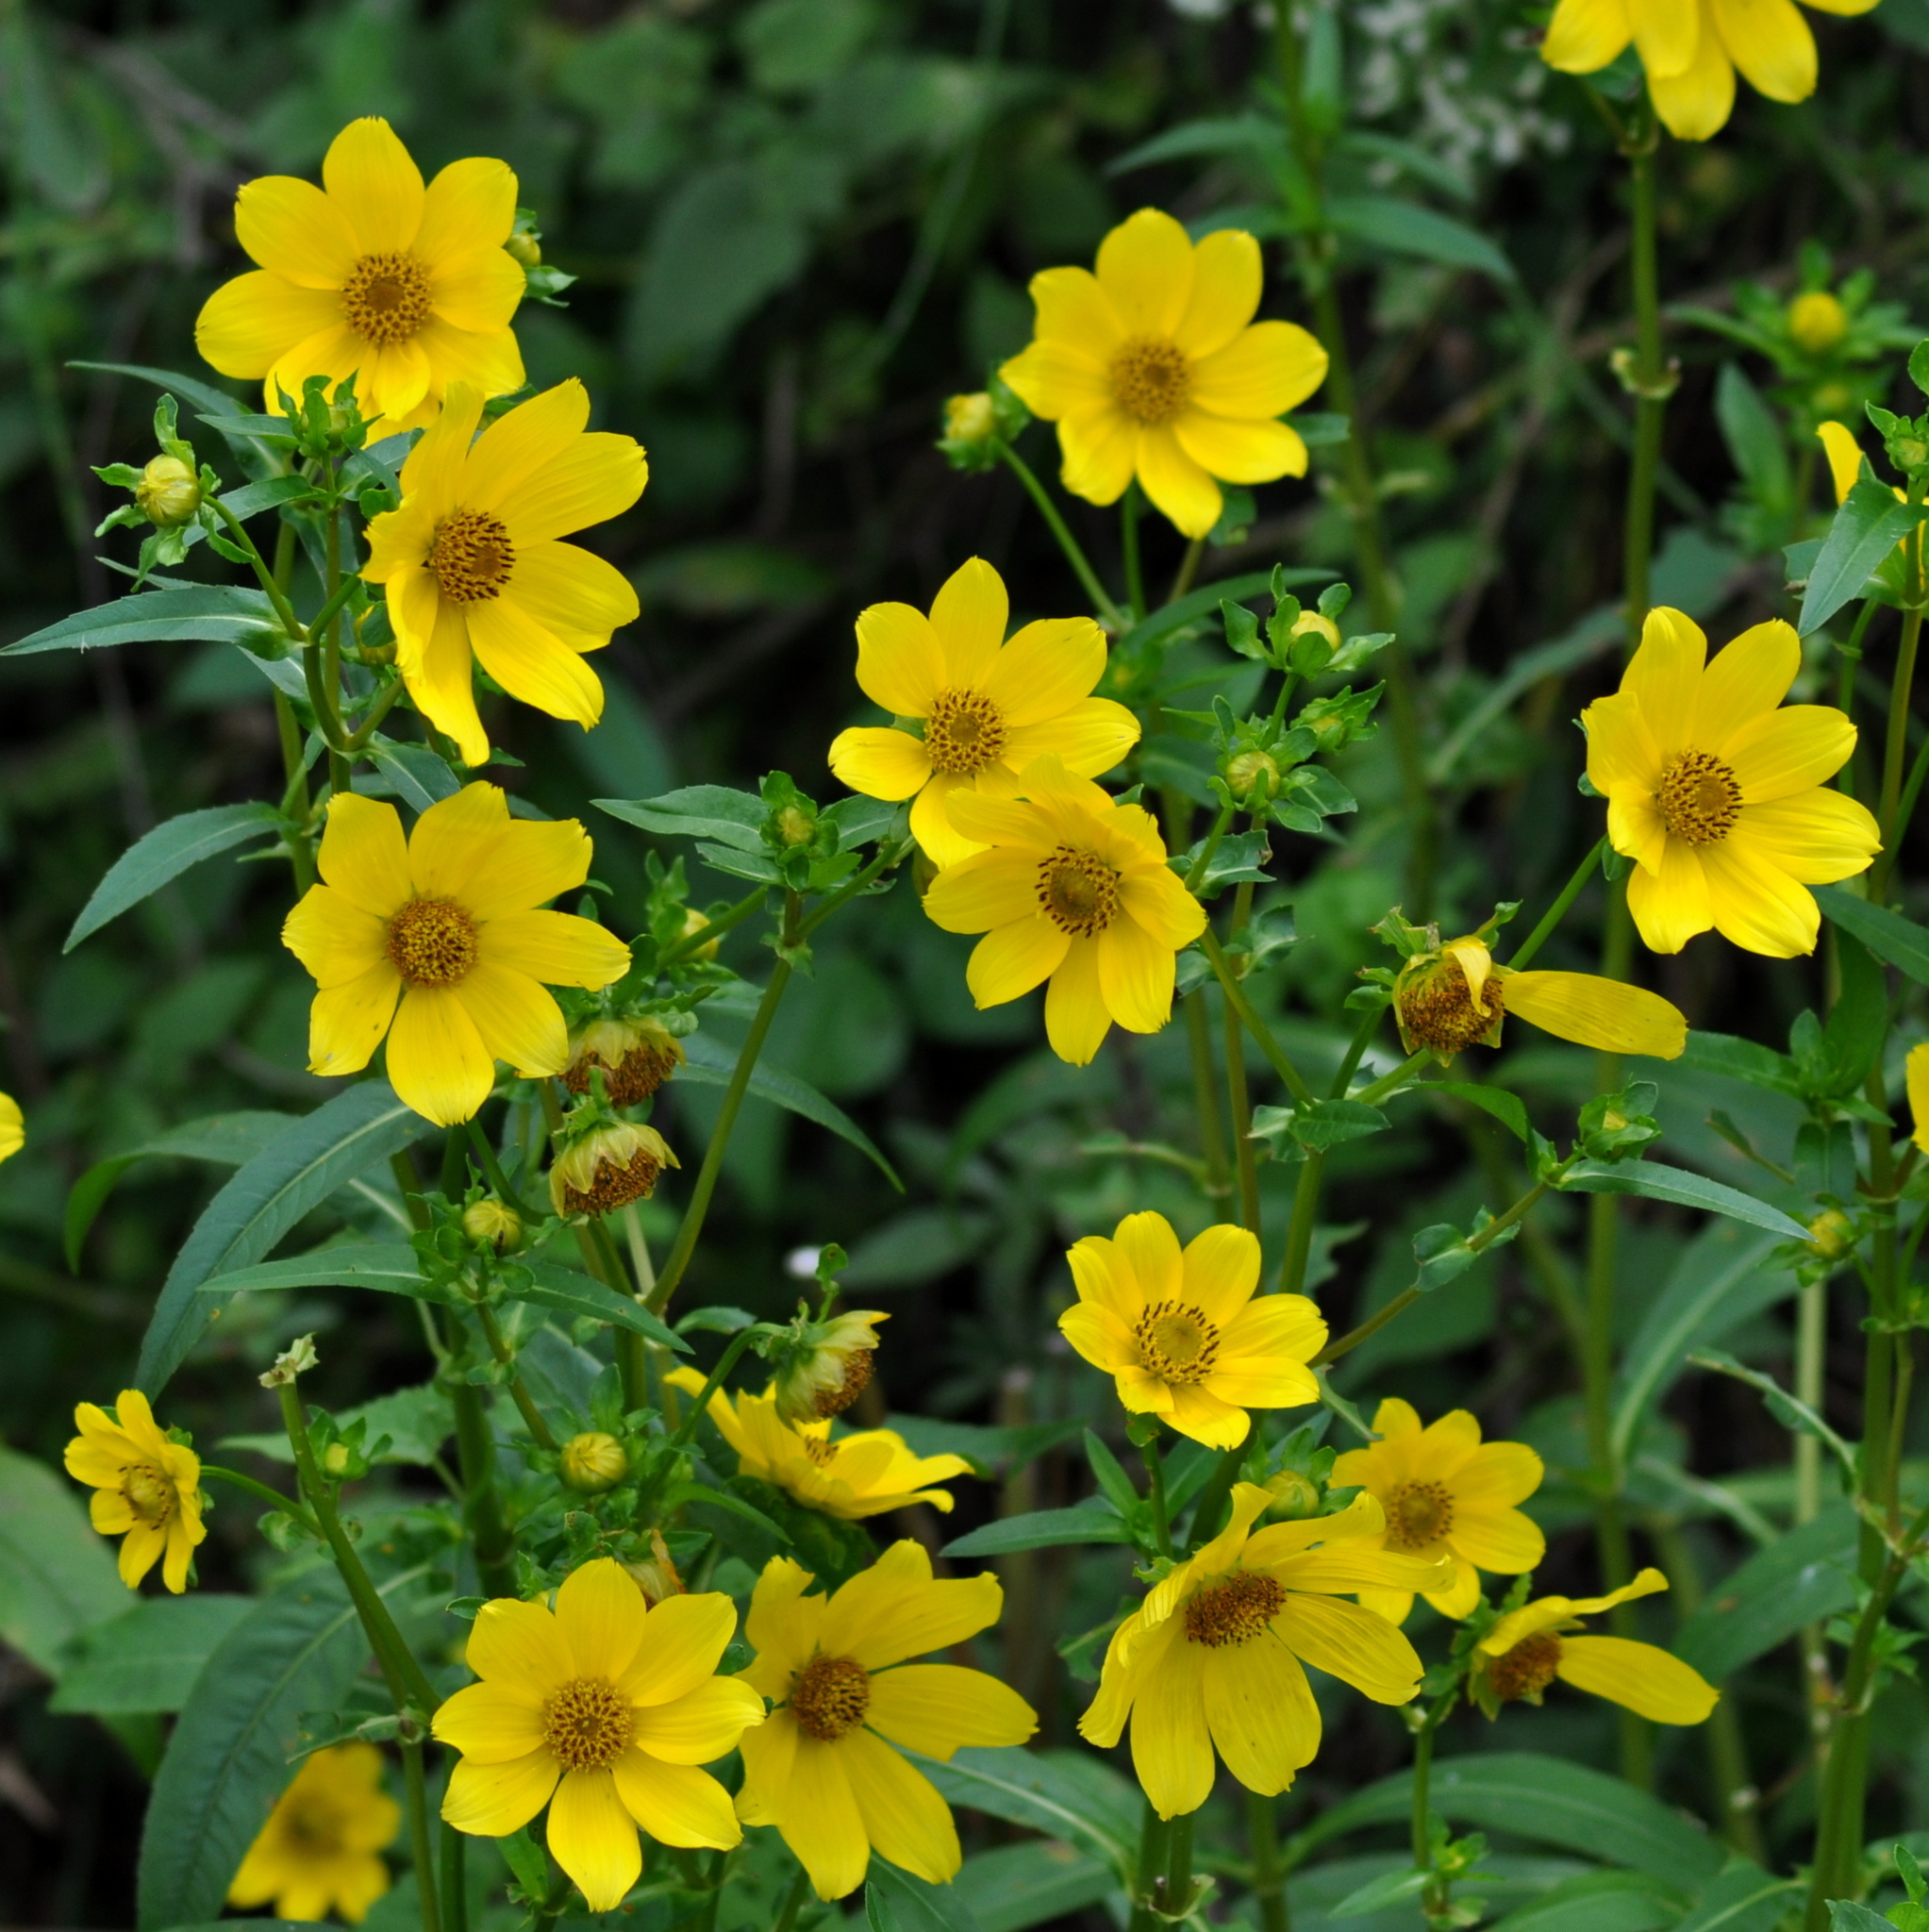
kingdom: Plantae
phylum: Tracheophyta
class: Magnoliopsida
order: Asterales
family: Asteraceae
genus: Bidens
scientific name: Bidens laevis
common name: Larger bur-marigold
